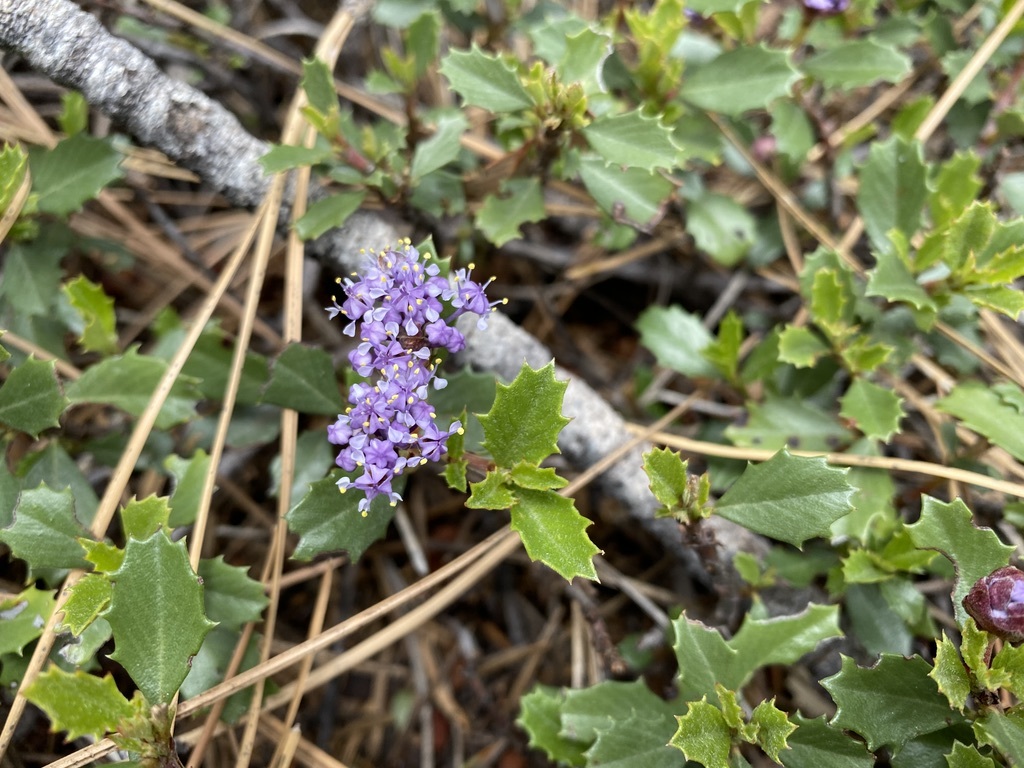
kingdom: Plantae
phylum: Tracheophyta
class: Magnoliopsida
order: Rosales
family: Rhamnaceae
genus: Ceanothus
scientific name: Ceanothus prostratus
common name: Mahala-mat
